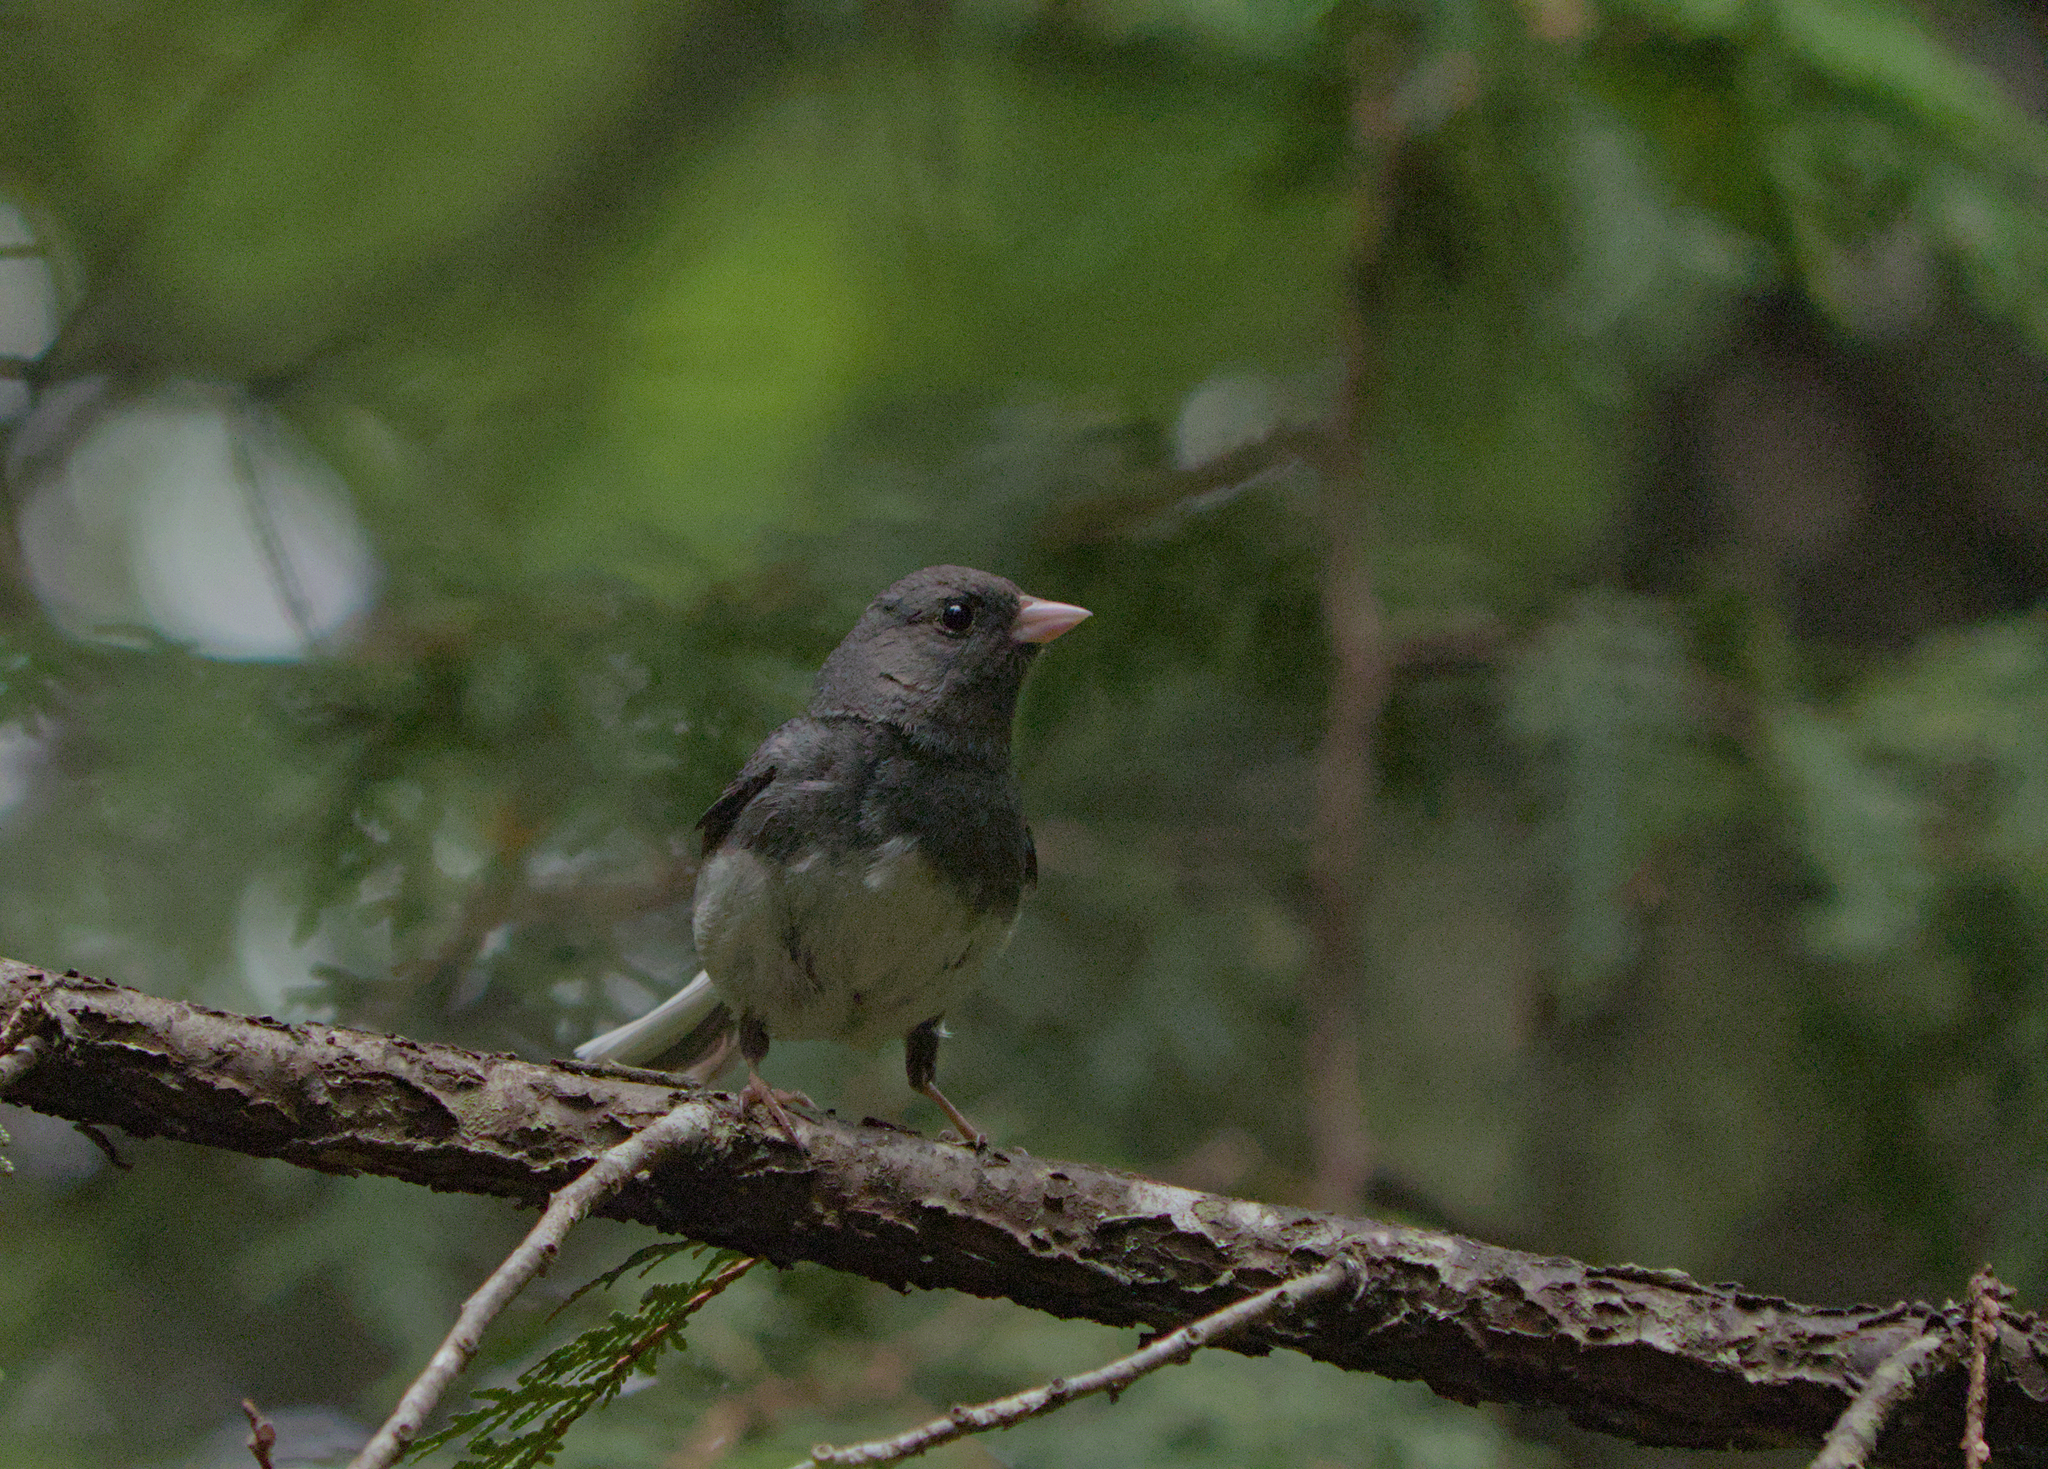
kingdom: Animalia
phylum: Chordata
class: Aves
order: Passeriformes
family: Passerellidae
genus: Junco
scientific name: Junco hyemalis
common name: Dark-eyed junco
